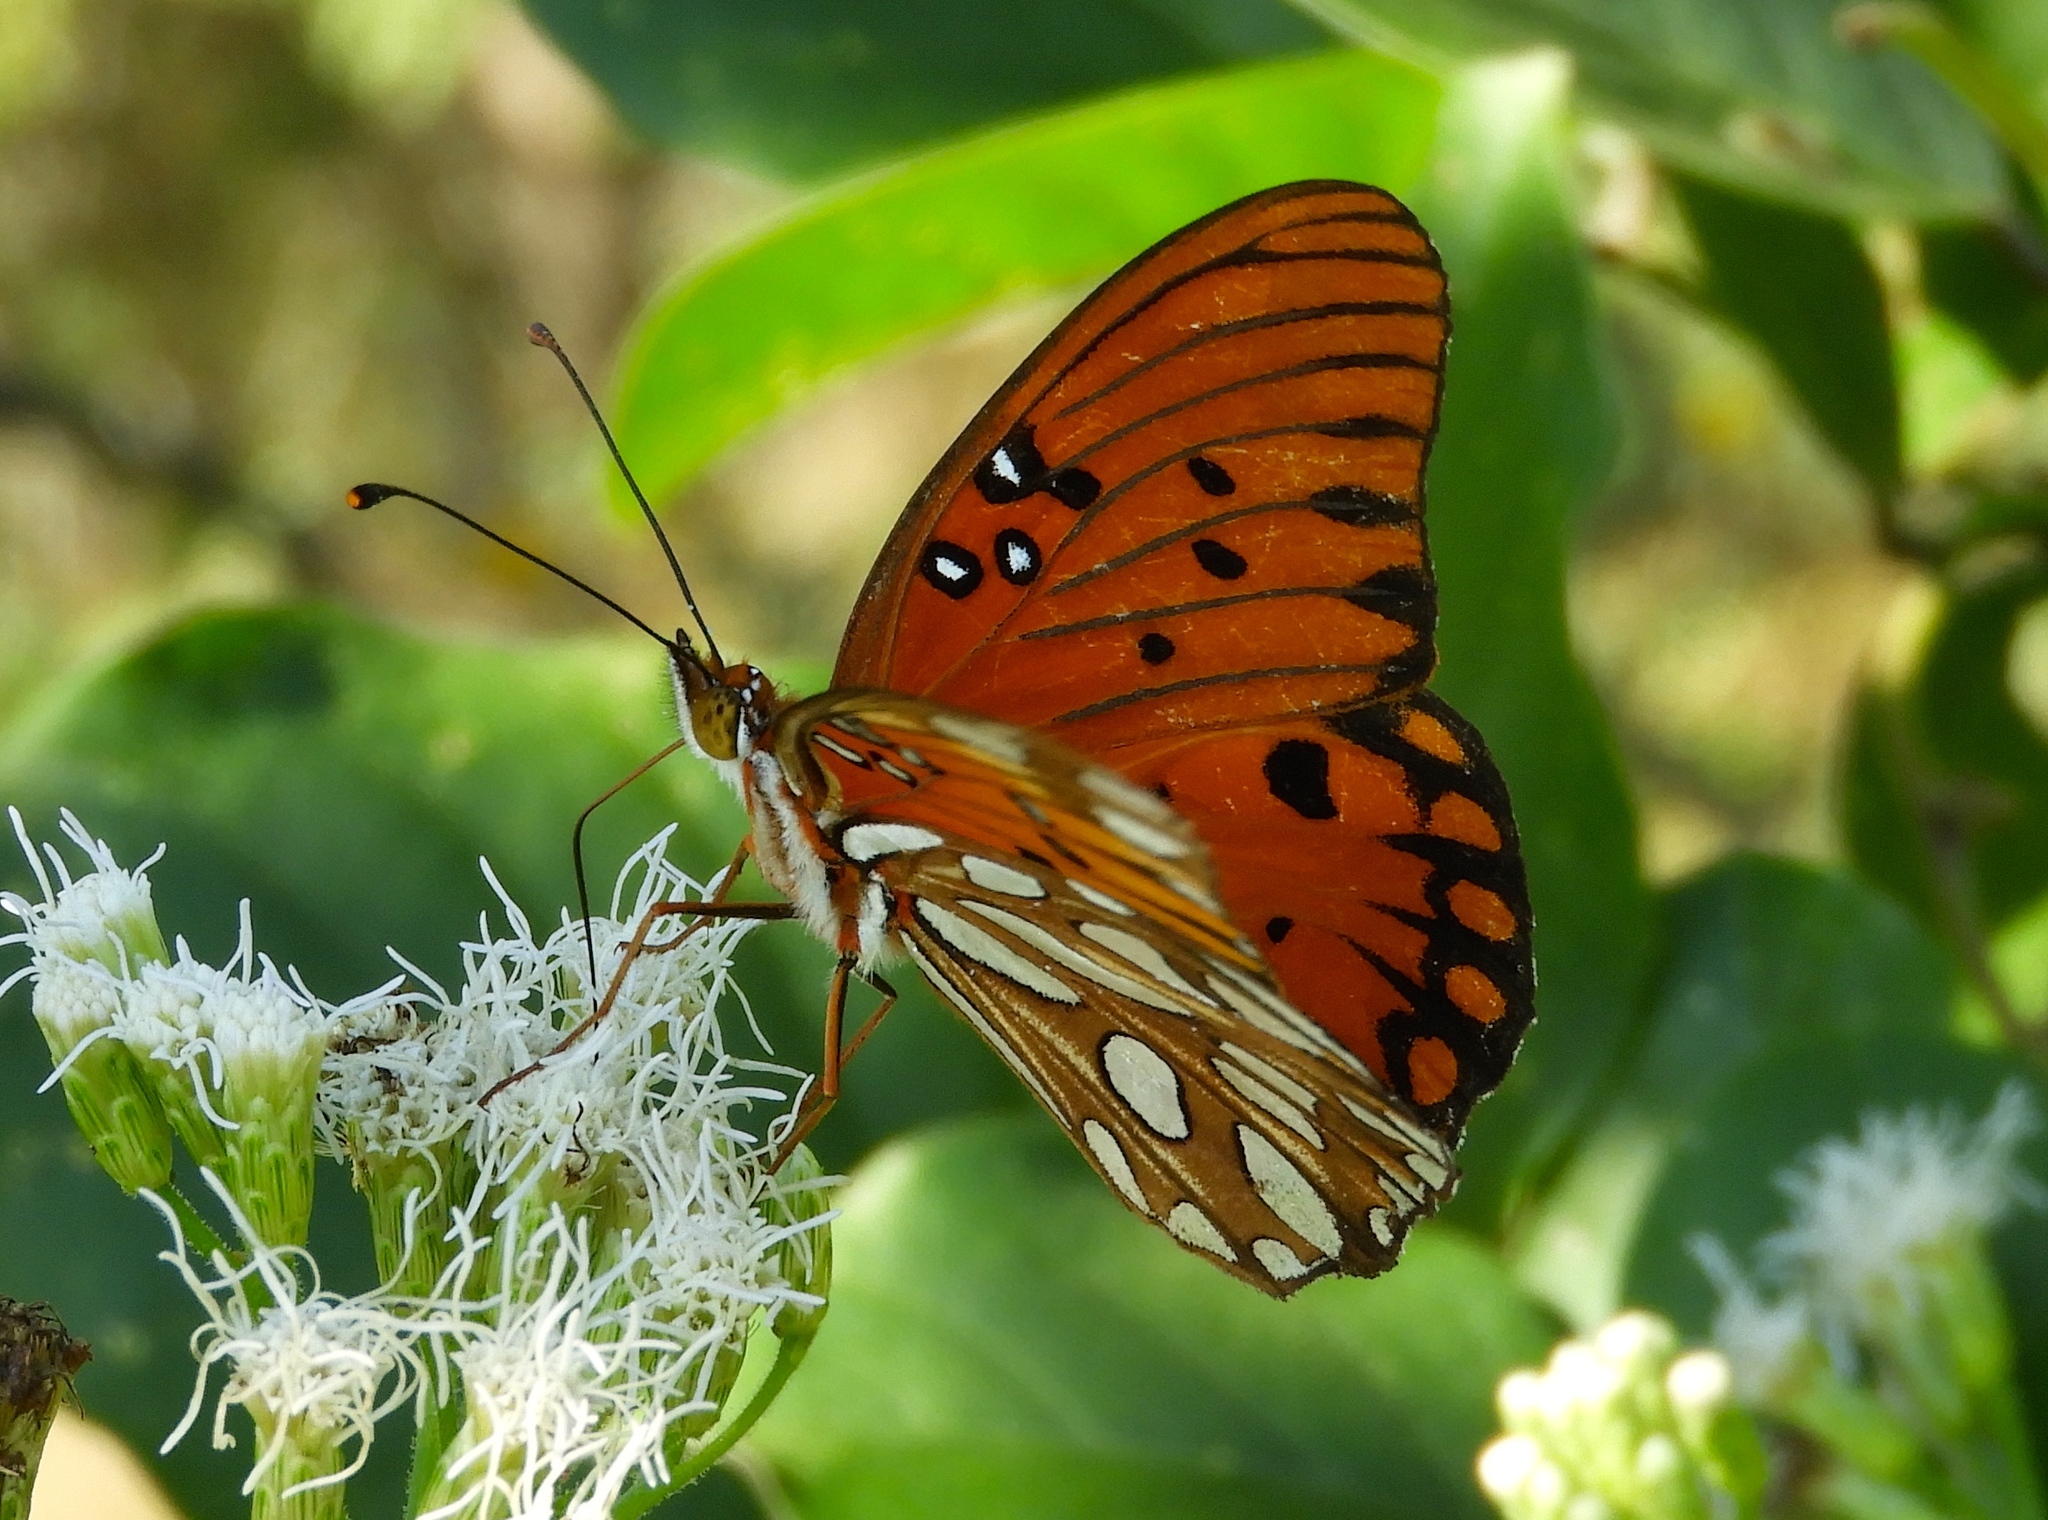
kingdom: Animalia
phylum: Arthropoda
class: Insecta
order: Lepidoptera
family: Nymphalidae
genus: Dione
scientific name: Dione vanillae
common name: Gulf fritillary
